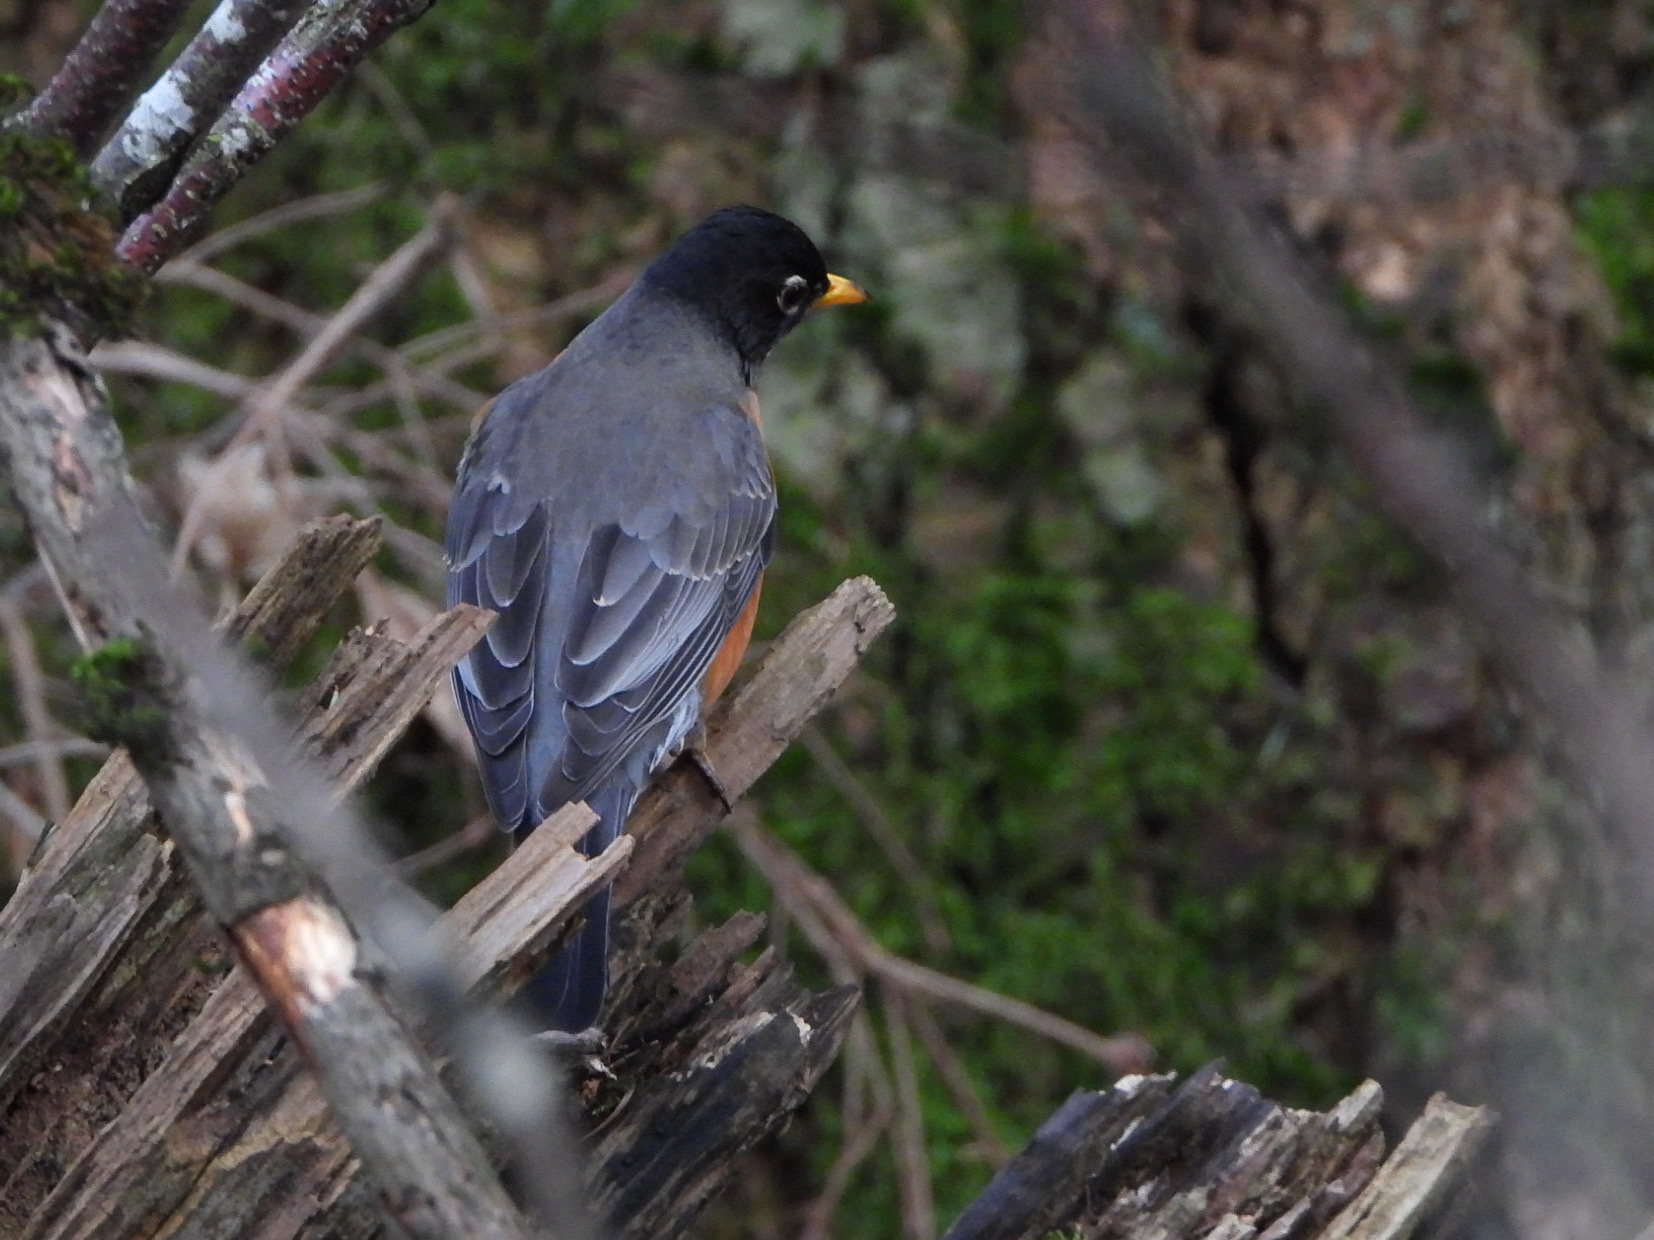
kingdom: Animalia
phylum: Chordata
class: Aves
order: Passeriformes
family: Turdidae
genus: Turdus
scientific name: Turdus migratorius
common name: American robin
